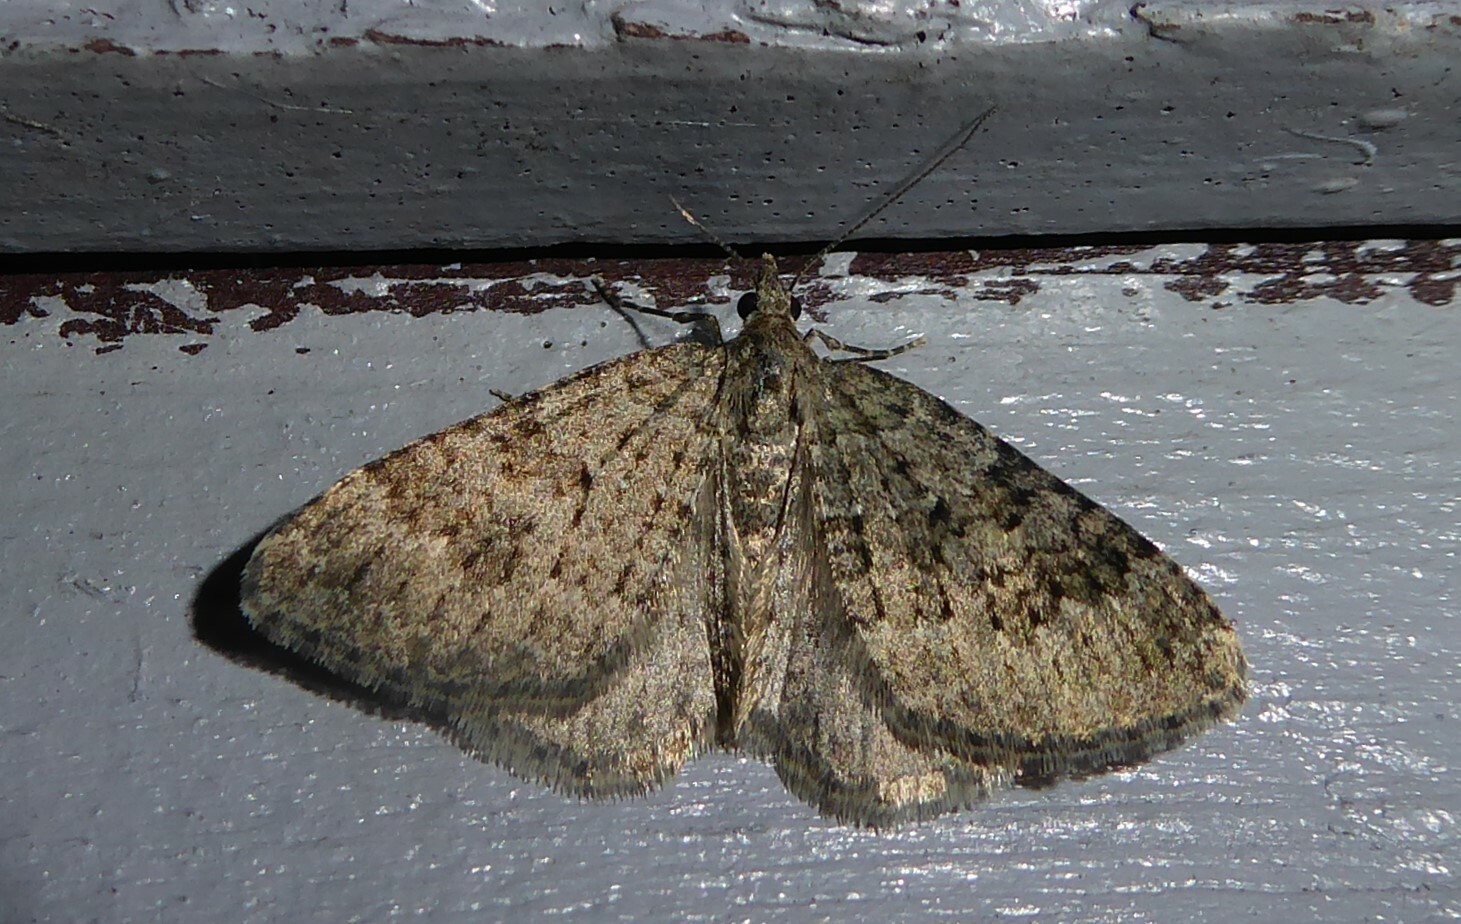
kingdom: Animalia
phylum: Arthropoda
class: Insecta
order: Lepidoptera
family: Geometridae
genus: Helastia
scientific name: Helastia corcularia
